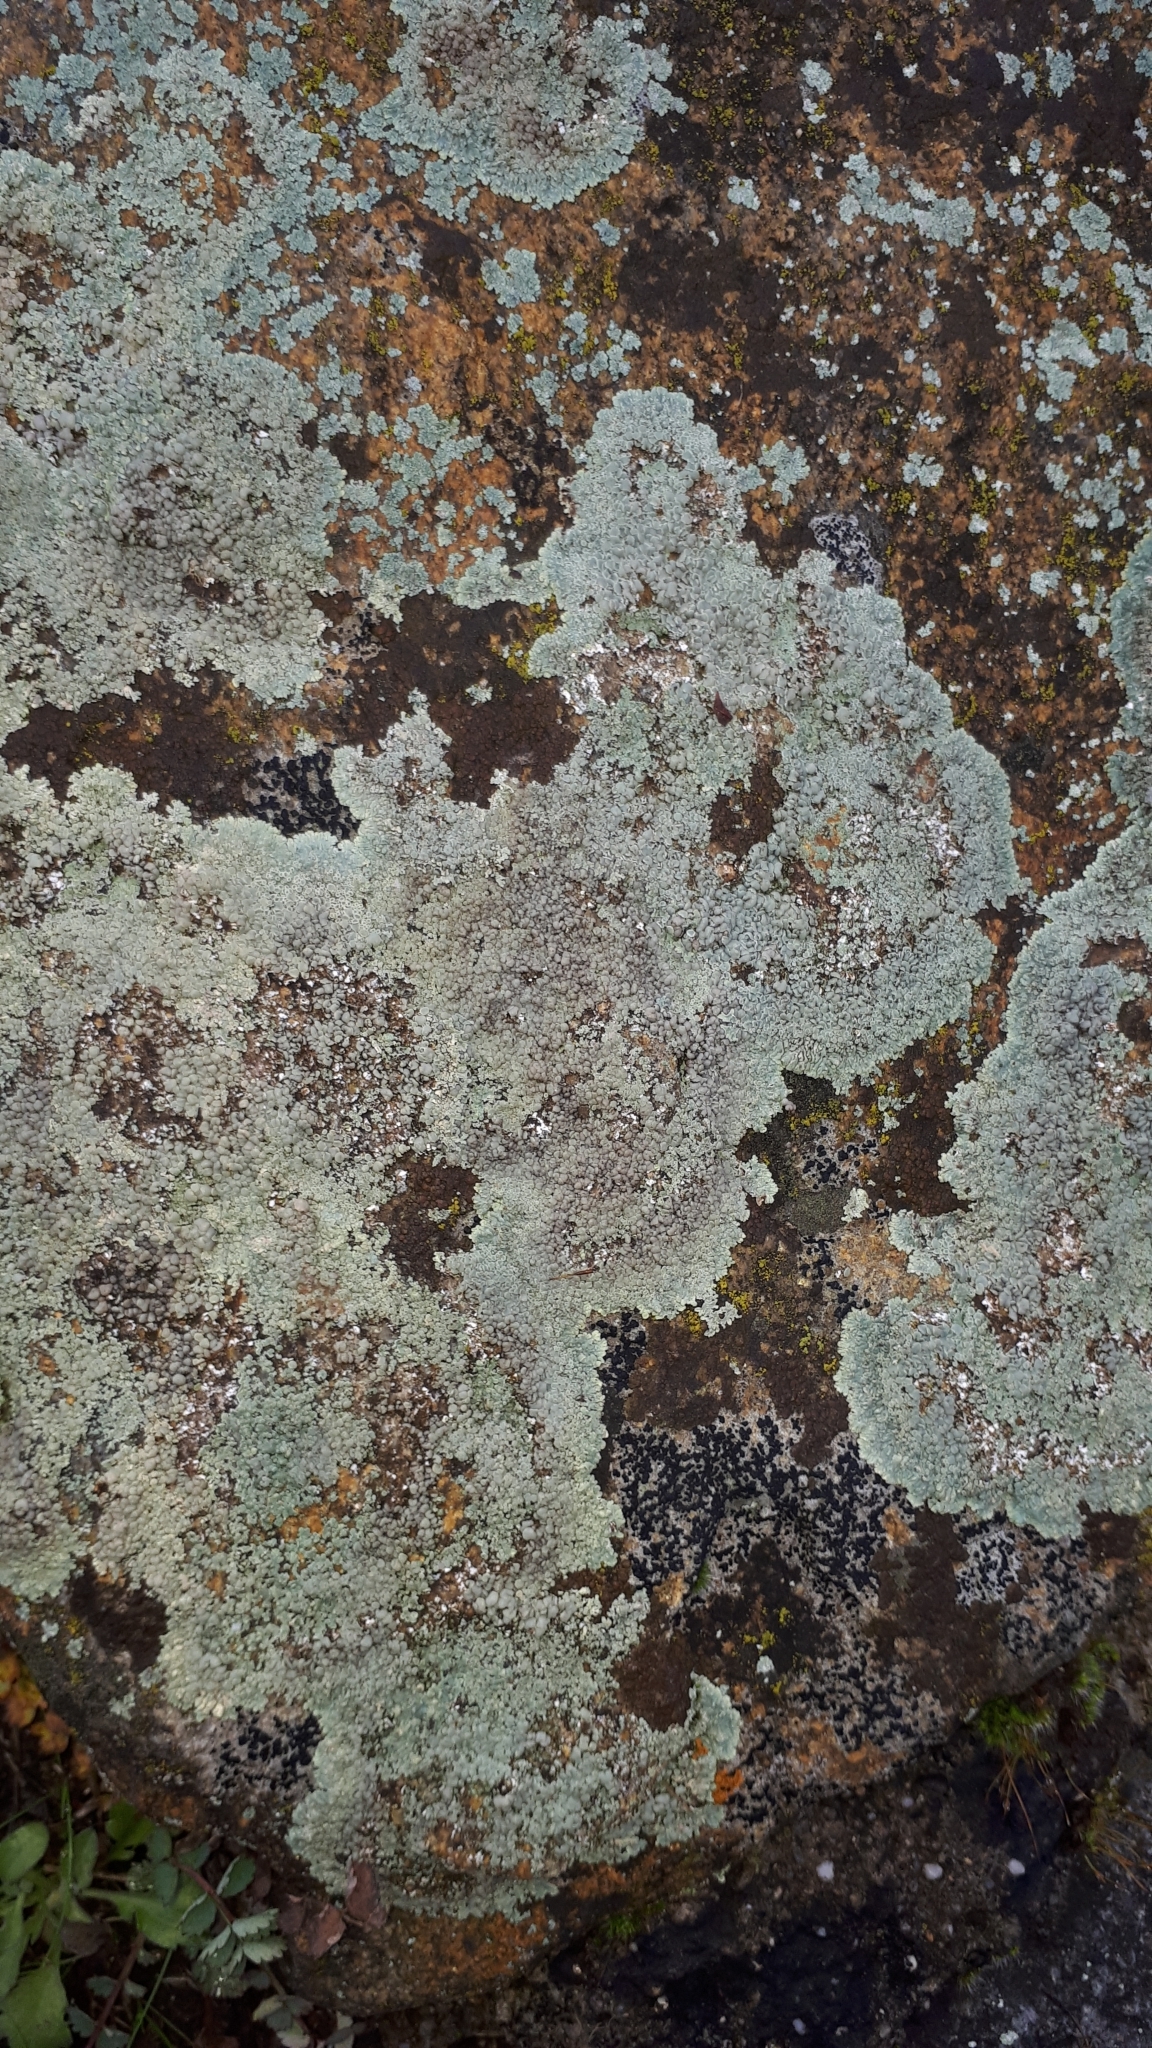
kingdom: Fungi
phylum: Ascomycota
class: Lecanoromycetes
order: Lecanorales
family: Lecanoraceae
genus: Protoparmeliopsis
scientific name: Protoparmeliopsis muralis
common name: Stonewall rim lichen
